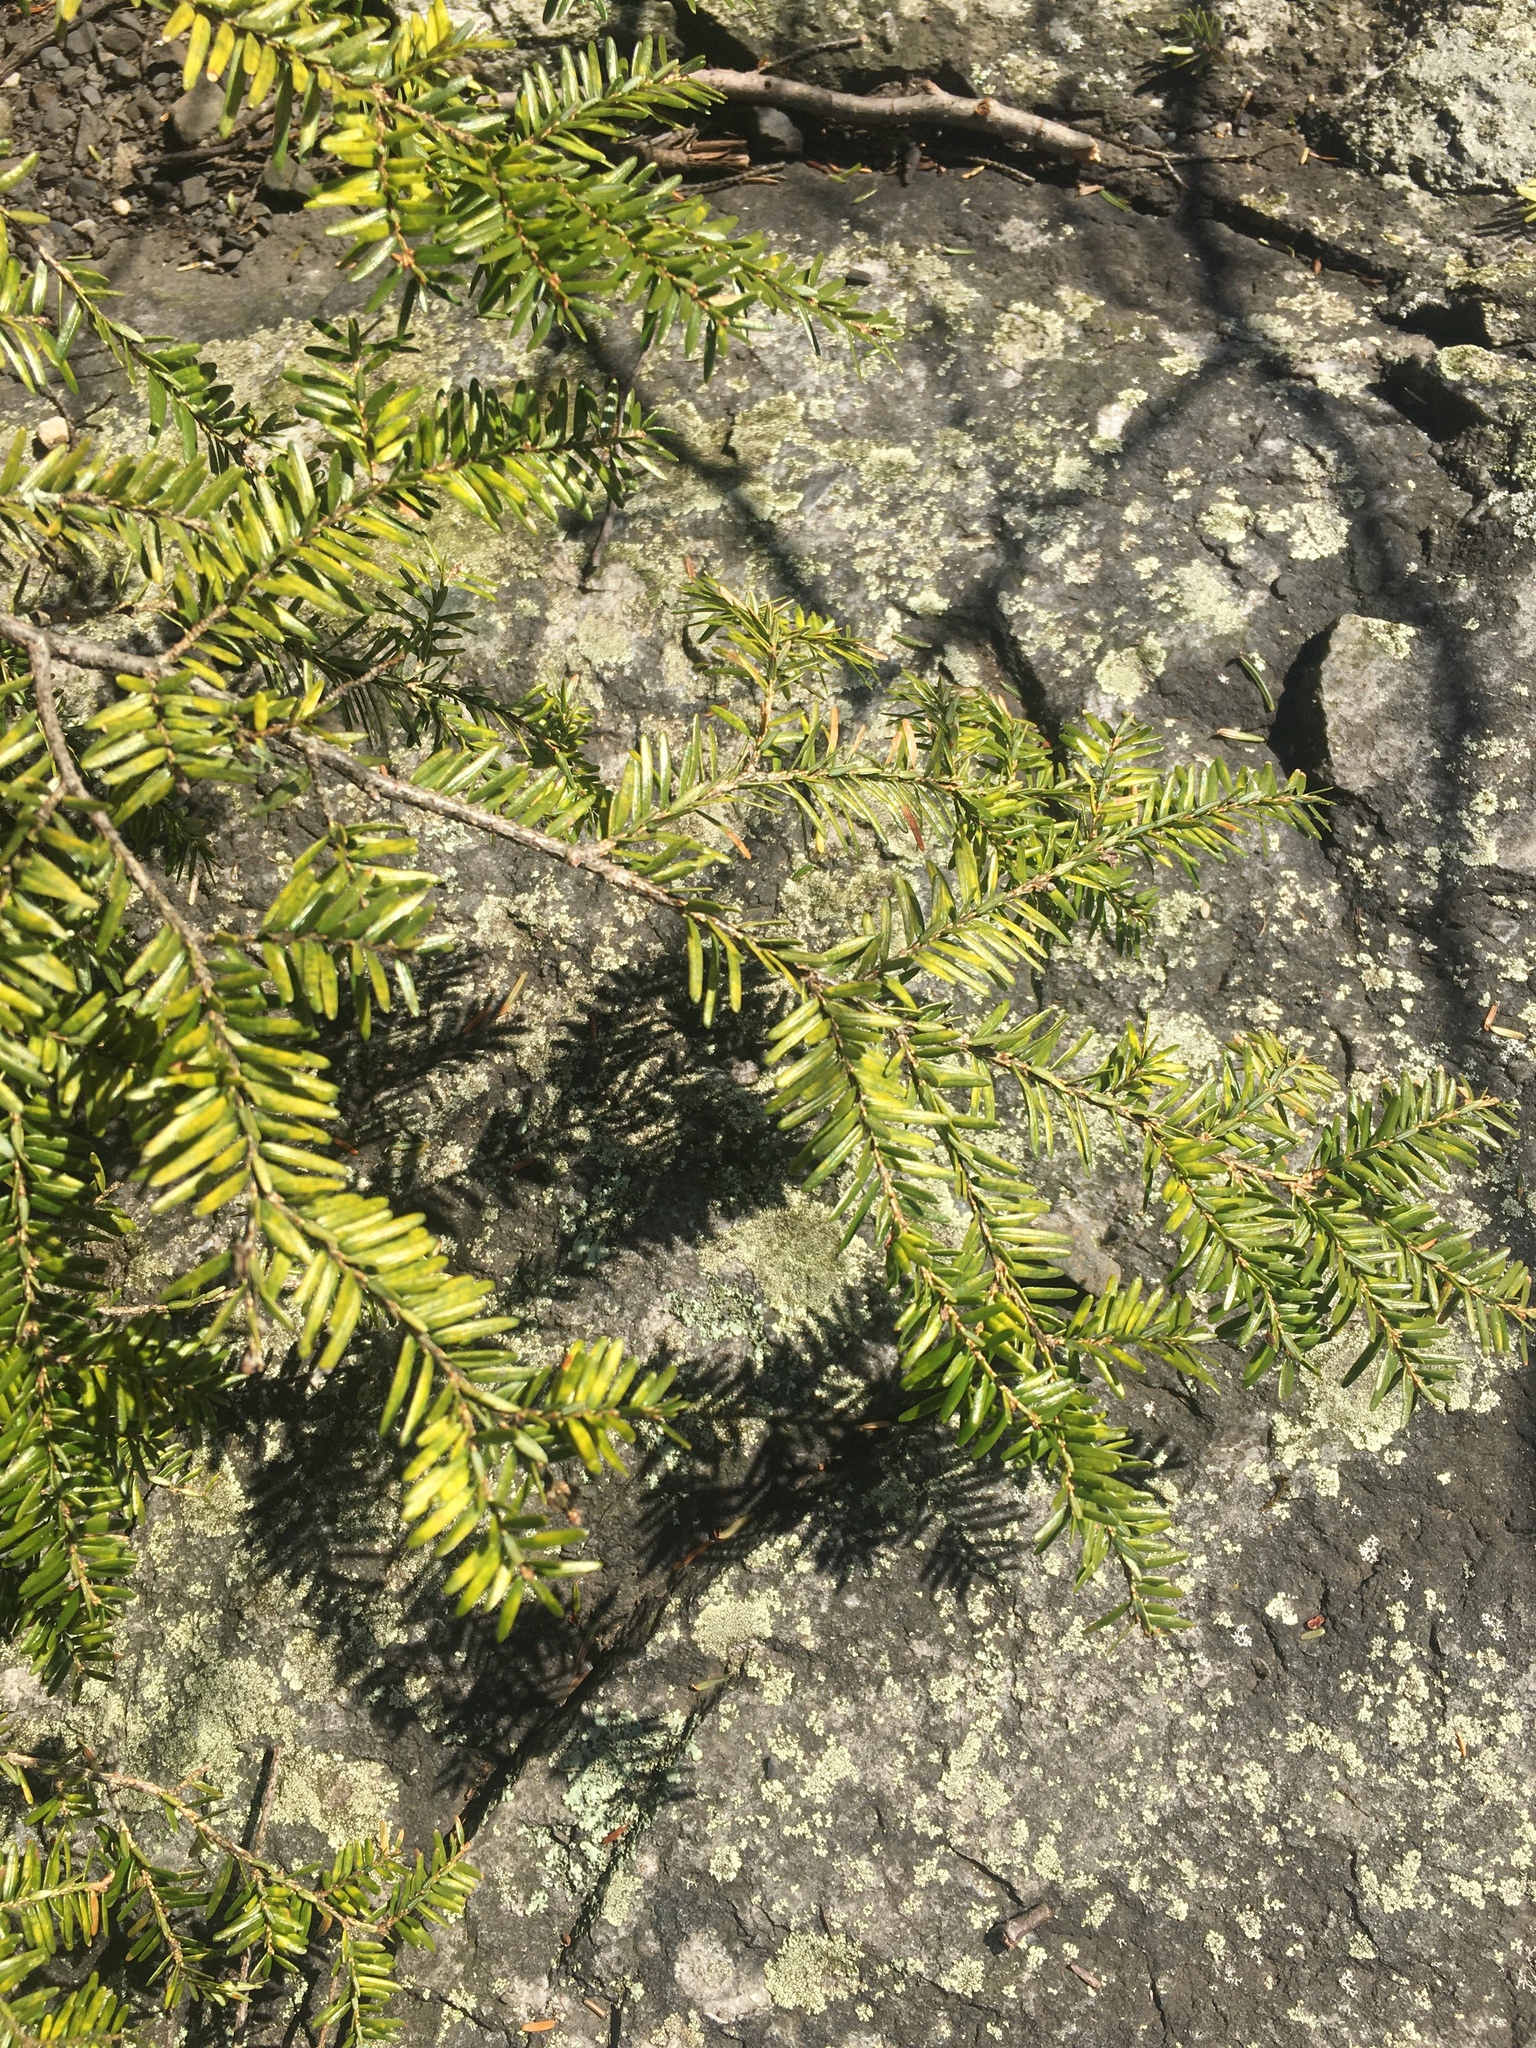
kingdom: Plantae
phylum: Tracheophyta
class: Pinopsida
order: Pinales
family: Pinaceae
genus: Tsuga
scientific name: Tsuga canadensis
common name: Eastern hemlock
